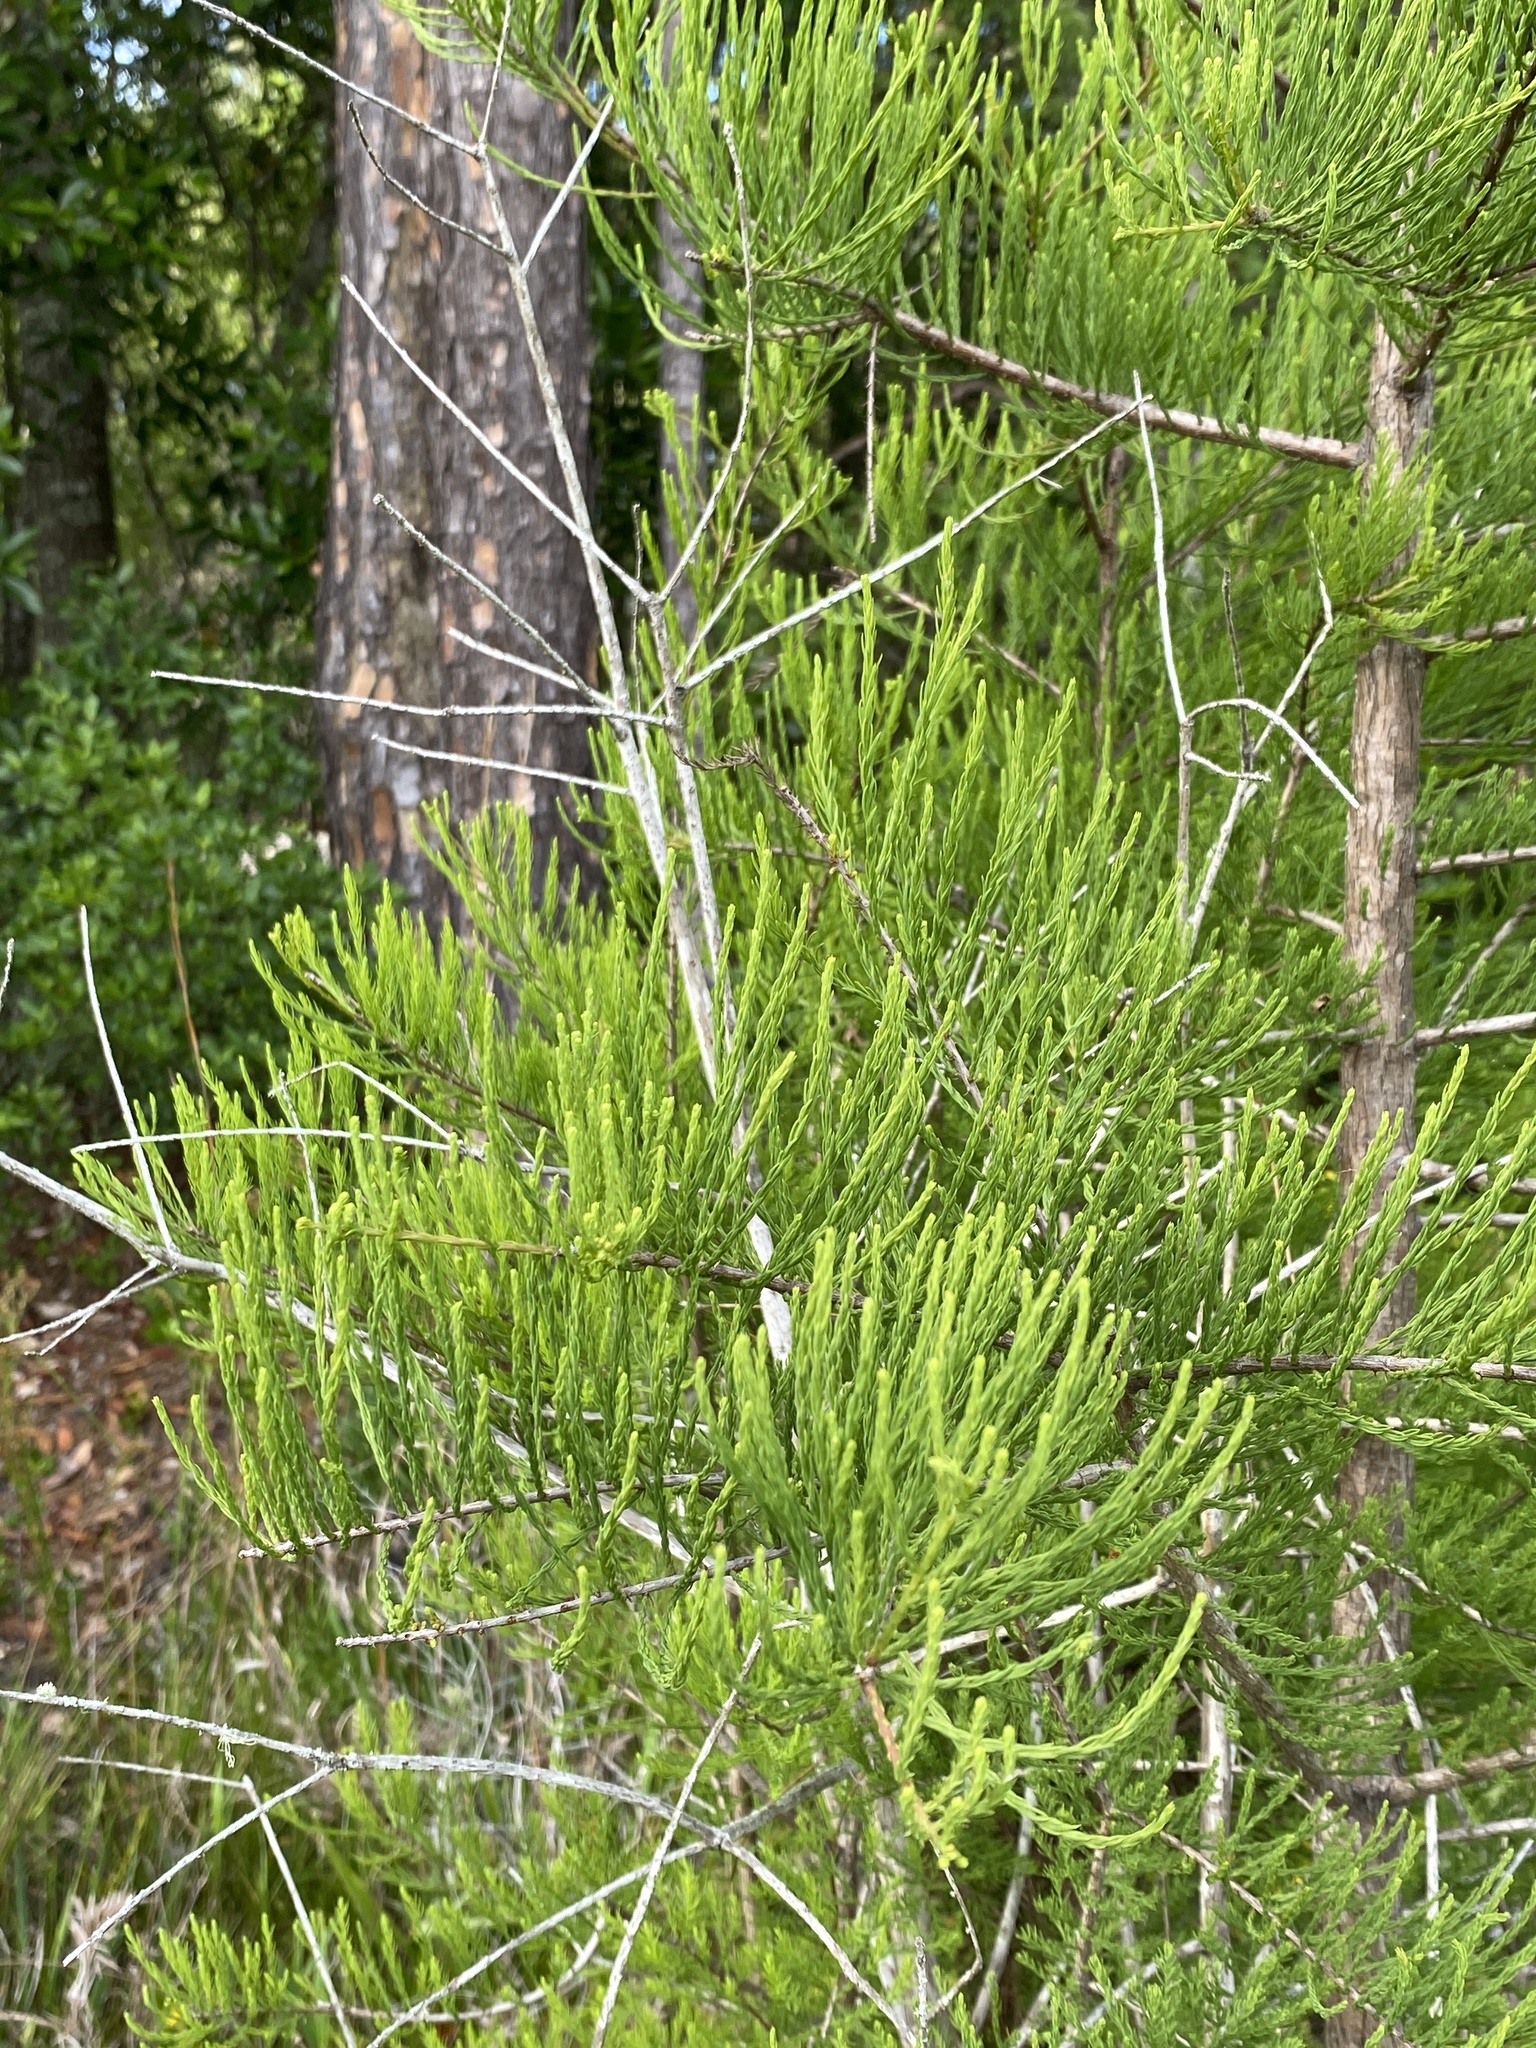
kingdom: Plantae
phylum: Tracheophyta
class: Pinopsida
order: Pinales
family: Cupressaceae
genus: Taxodium
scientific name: Taxodium distichum
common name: Bald cypress
